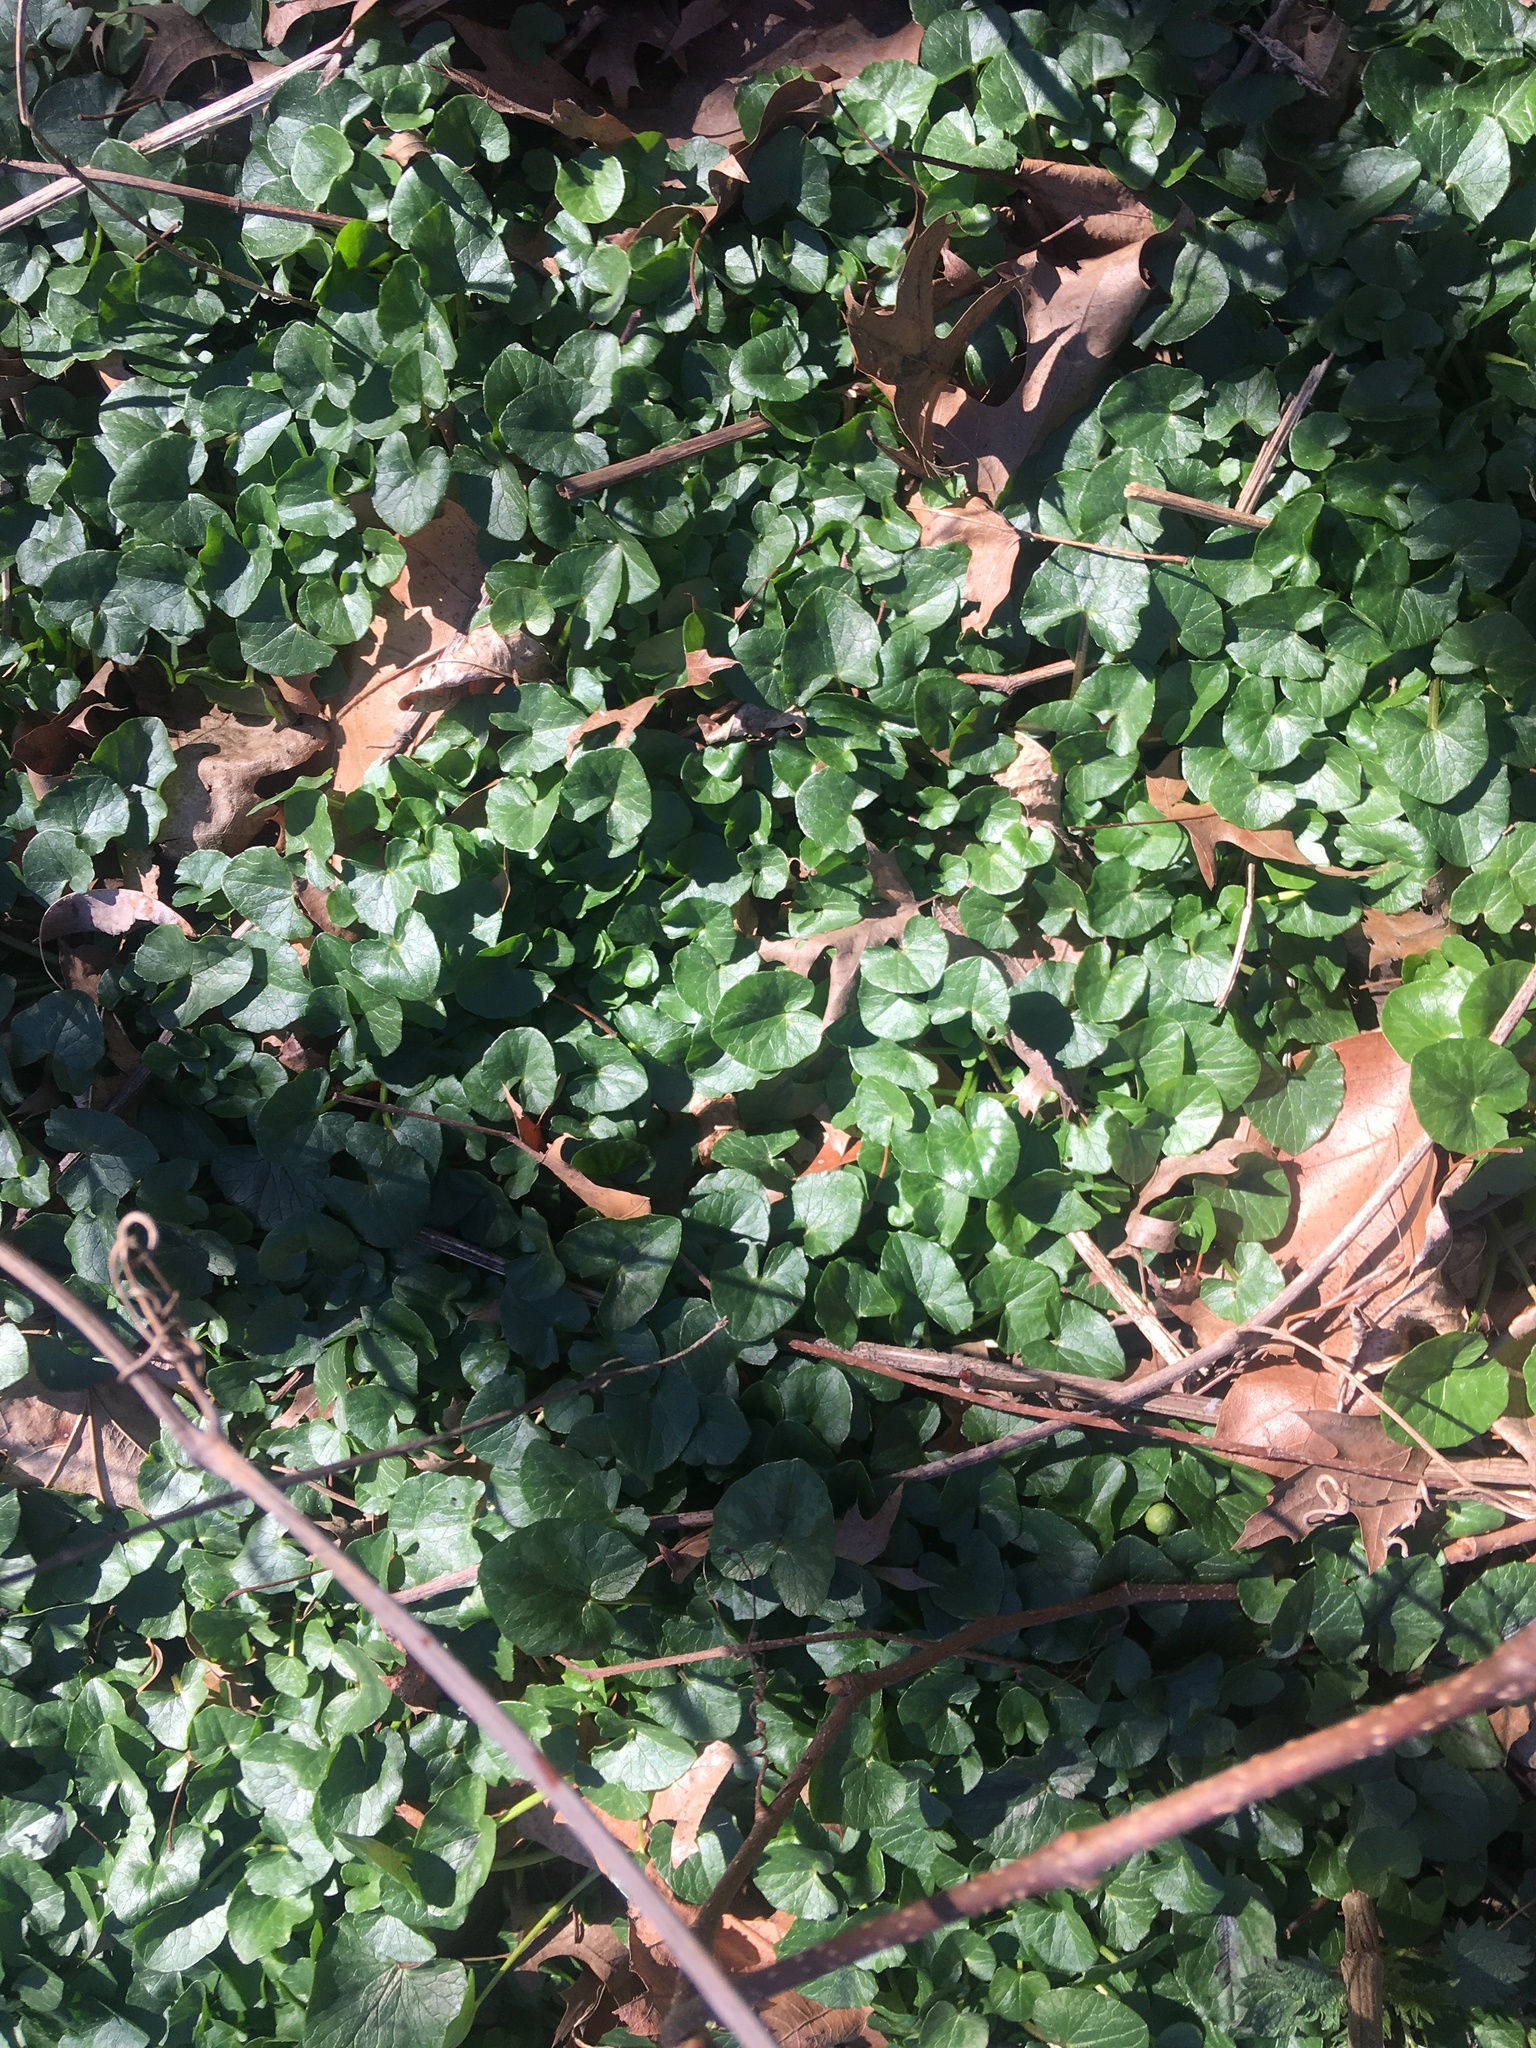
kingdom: Plantae
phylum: Tracheophyta
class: Magnoliopsida
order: Ranunculales
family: Ranunculaceae
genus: Ficaria
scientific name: Ficaria verna
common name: Lesser celandine
